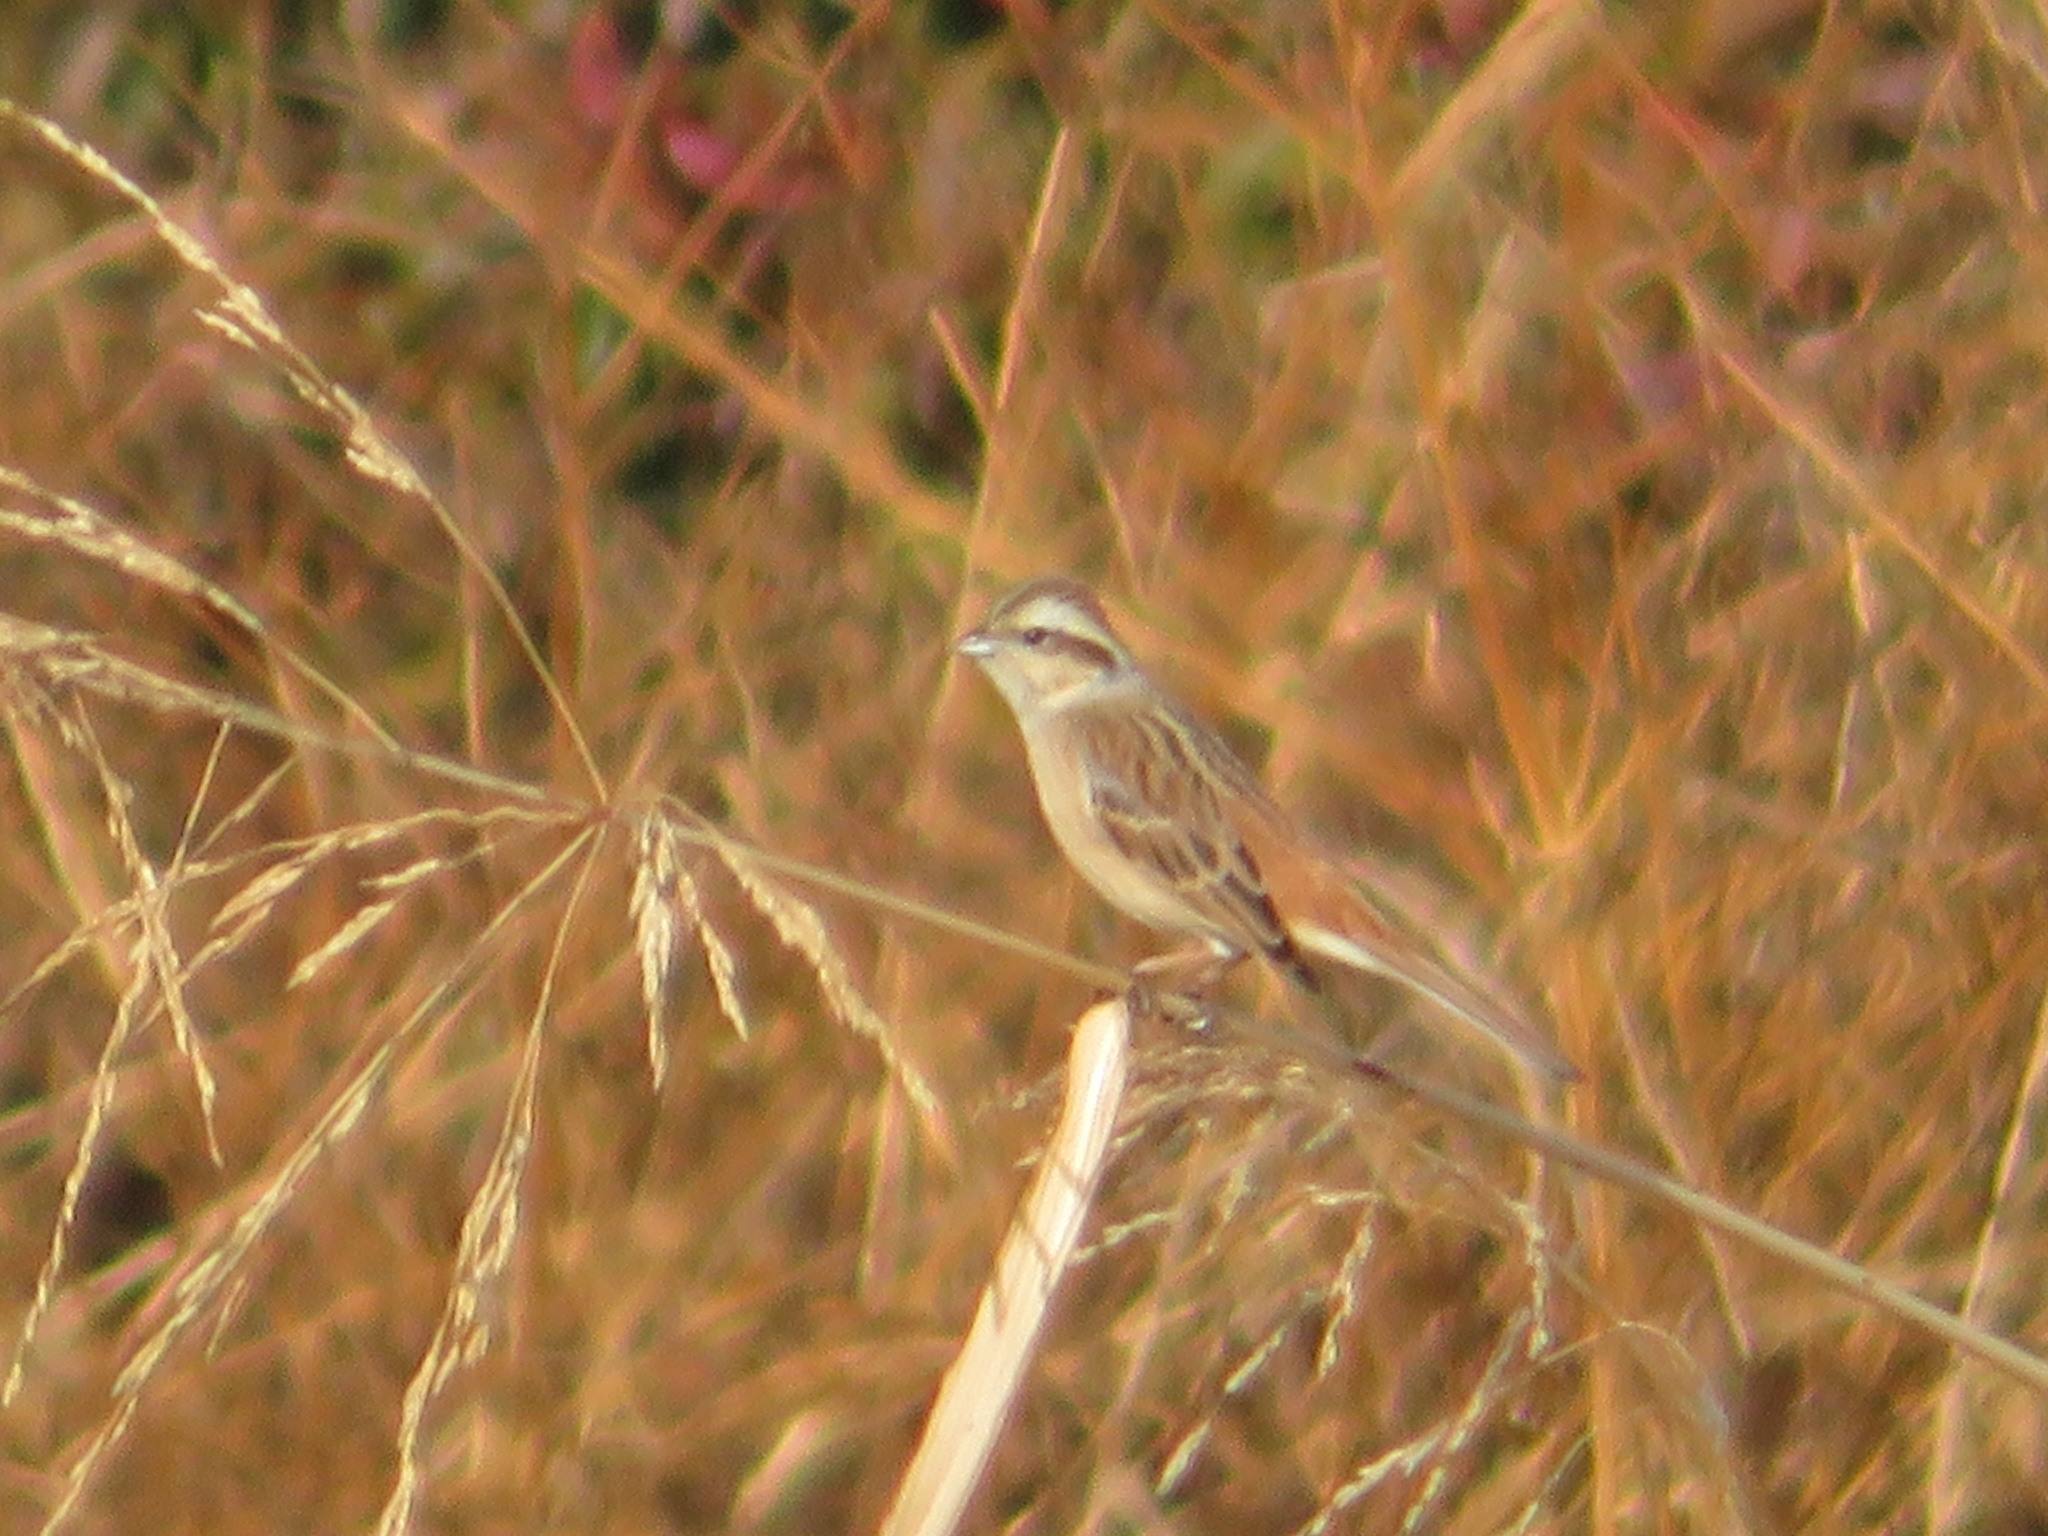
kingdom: Animalia
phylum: Chordata
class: Aves
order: Passeriformes
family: Emberizidae
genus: Emberiza
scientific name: Emberiza cioides
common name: Meadow bunting
